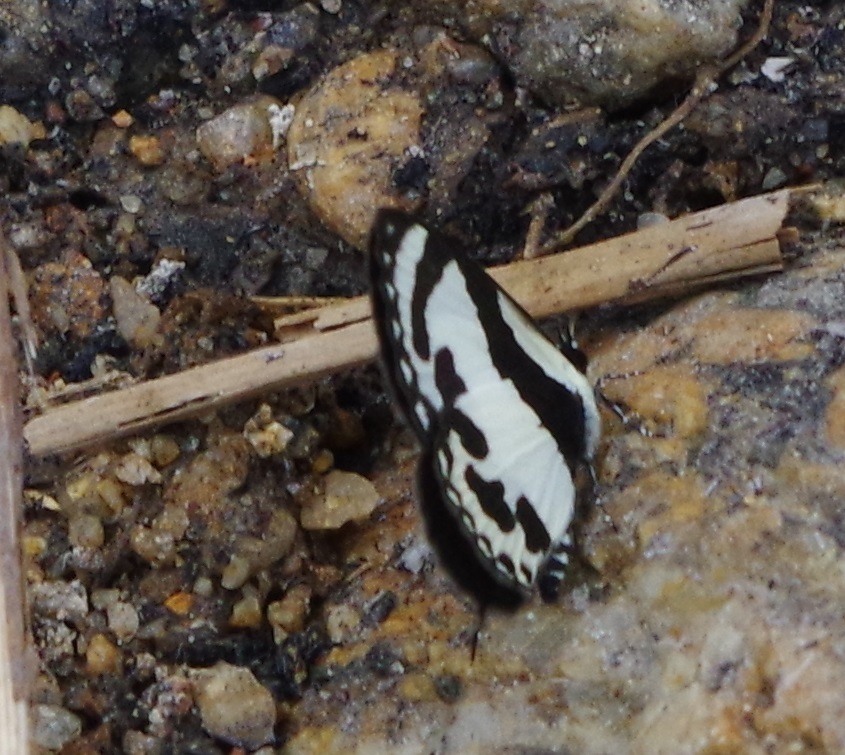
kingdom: Animalia
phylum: Arthropoda
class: Insecta
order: Lepidoptera
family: Lycaenidae
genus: Caleta
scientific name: Caleta roxus
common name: Straight pierrot
